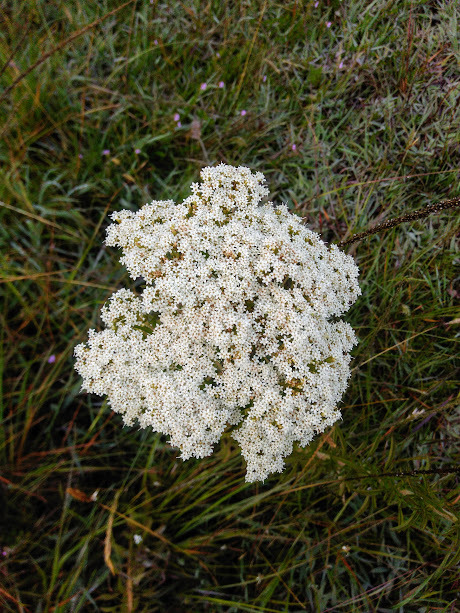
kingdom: Plantae
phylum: Tracheophyta
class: Magnoliopsida
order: Asterales
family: Asteraceae
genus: Stevia
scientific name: Stevia serrata
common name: Sawtooth candyleaf
